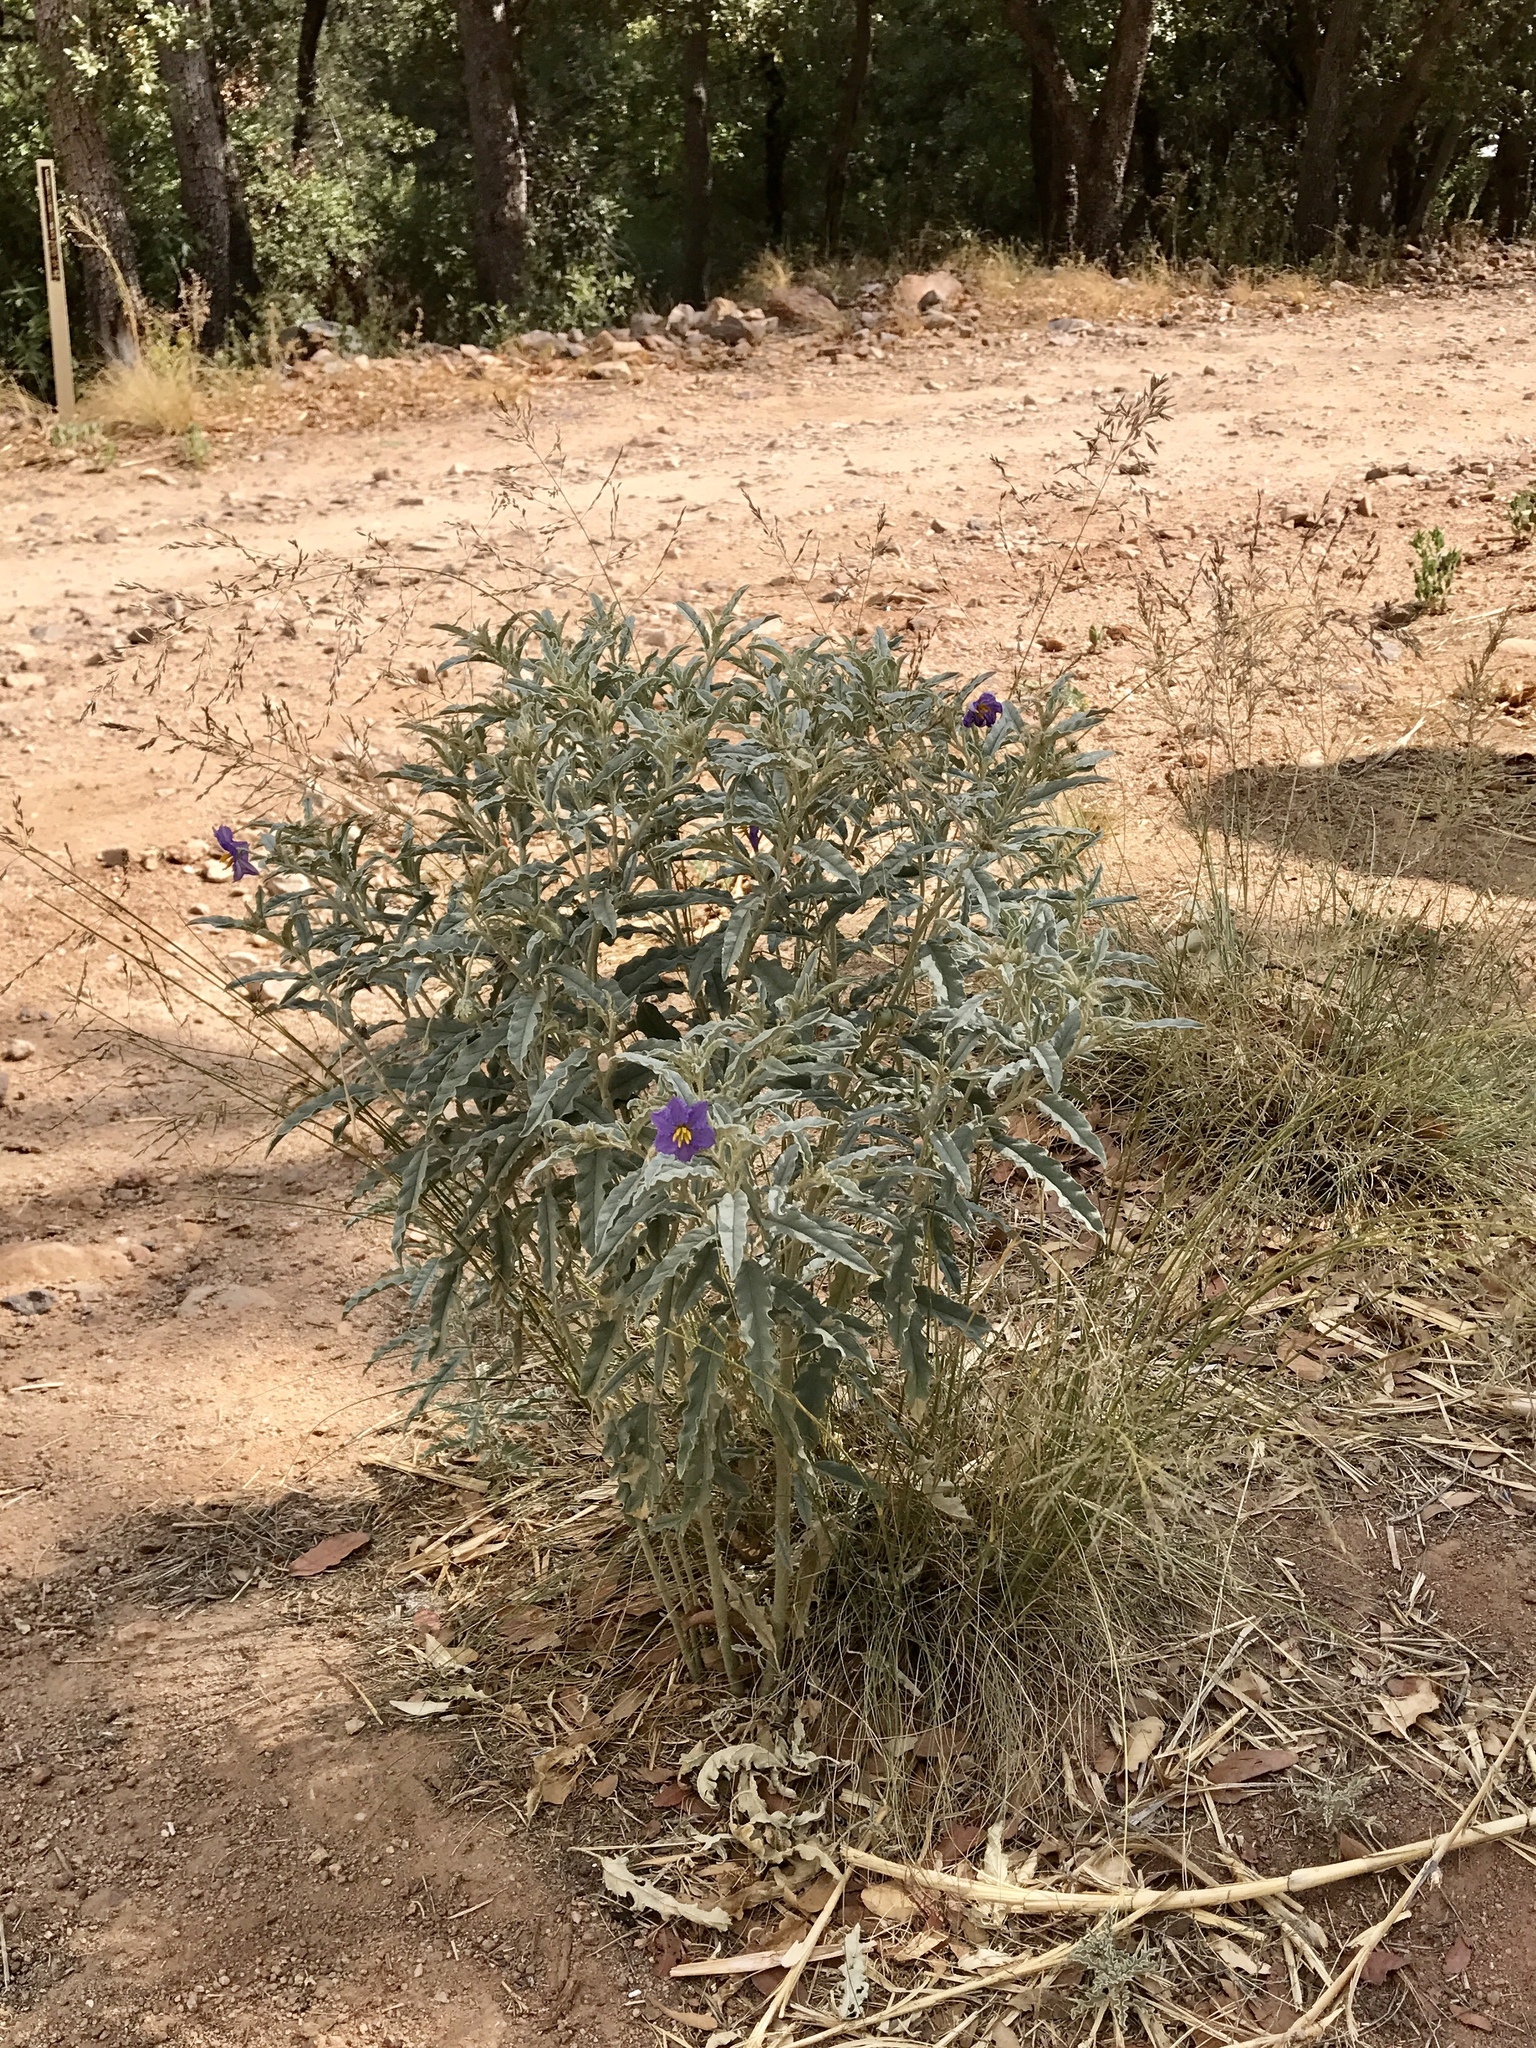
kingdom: Plantae
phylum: Tracheophyta
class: Magnoliopsida
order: Solanales
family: Solanaceae
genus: Solanum
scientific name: Solanum elaeagnifolium
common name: Silverleaf nightshade
